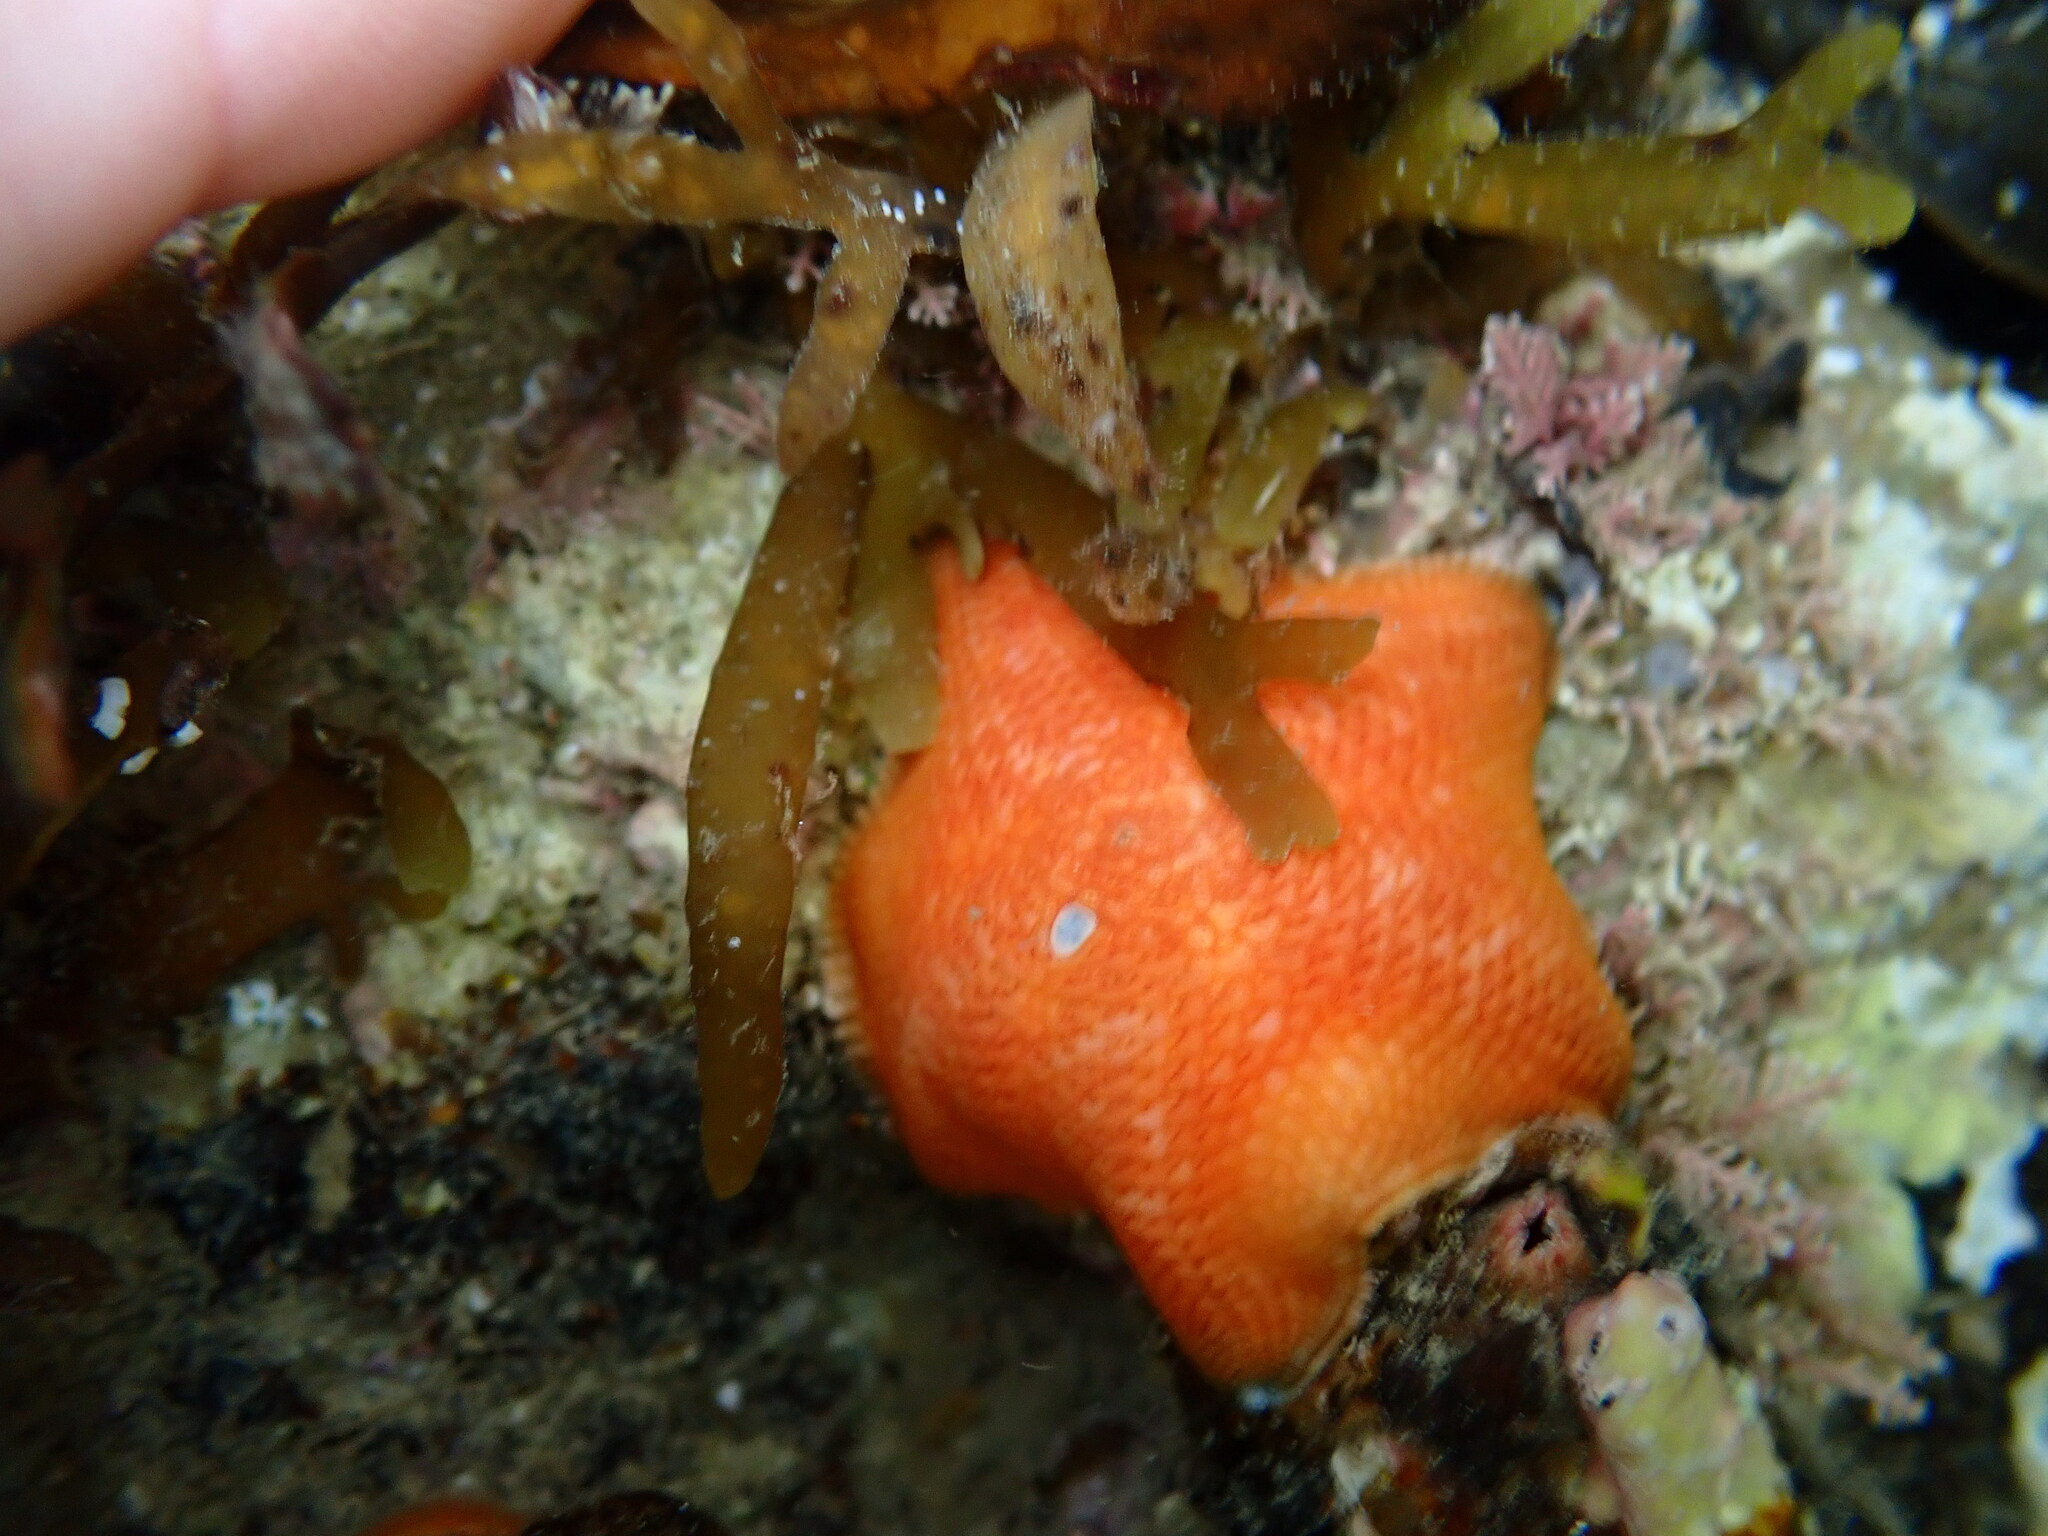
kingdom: Animalia
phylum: Echinodermata
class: Asteroidea
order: Valvatida
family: Asterinidae
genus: Patiriella
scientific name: Patiriella regularis
